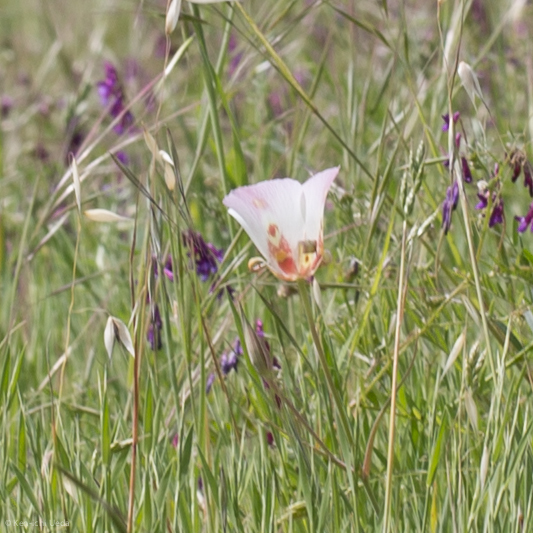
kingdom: Plantae
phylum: Tracheophyta
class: Liliopsida
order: Liliales
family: Liliaceae
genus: Calochortus
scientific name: Calochortus venustus
